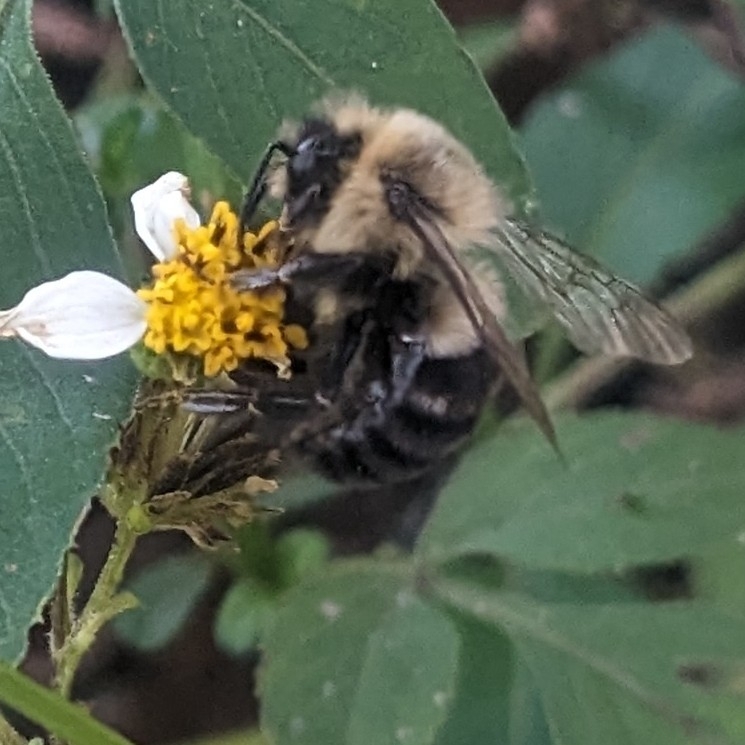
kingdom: Animalia
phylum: Arthropoda
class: Insecta
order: Hymenoptera
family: Apidae
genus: Bombus
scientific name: Bombus impatiens
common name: Common eastern bumble bee
